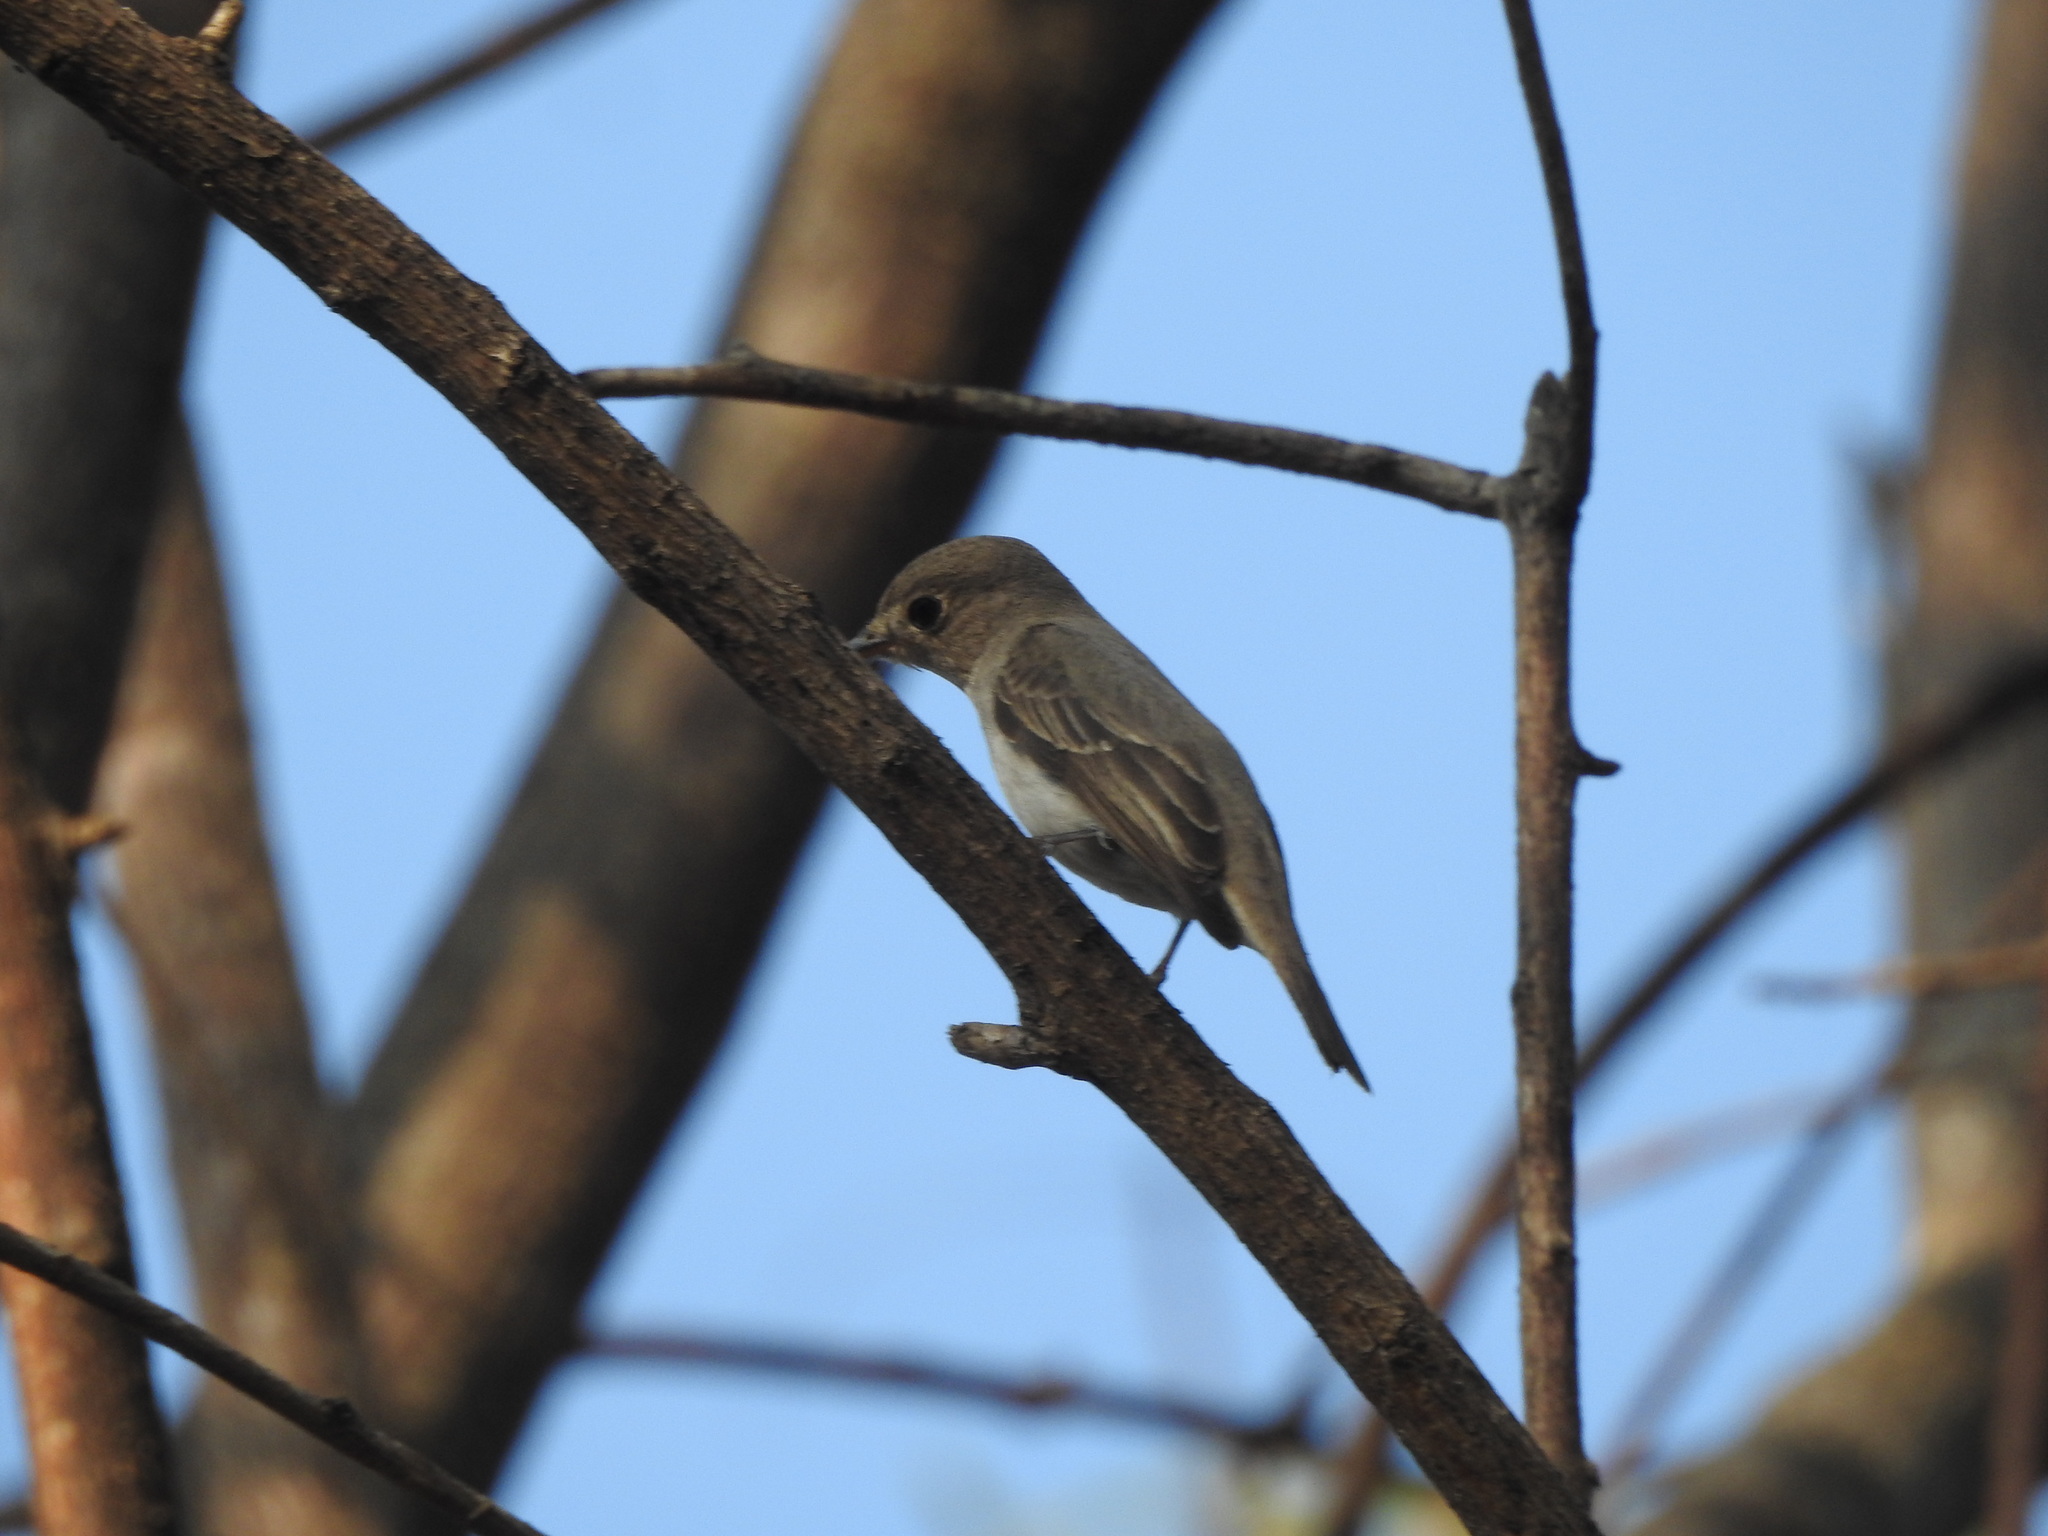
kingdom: Animalia
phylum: Chordata
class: Aves
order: Passeriformes
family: Muscicapidae
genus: Muscicapa
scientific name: Muscicapa latirostris
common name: Asian brown flycatcher
